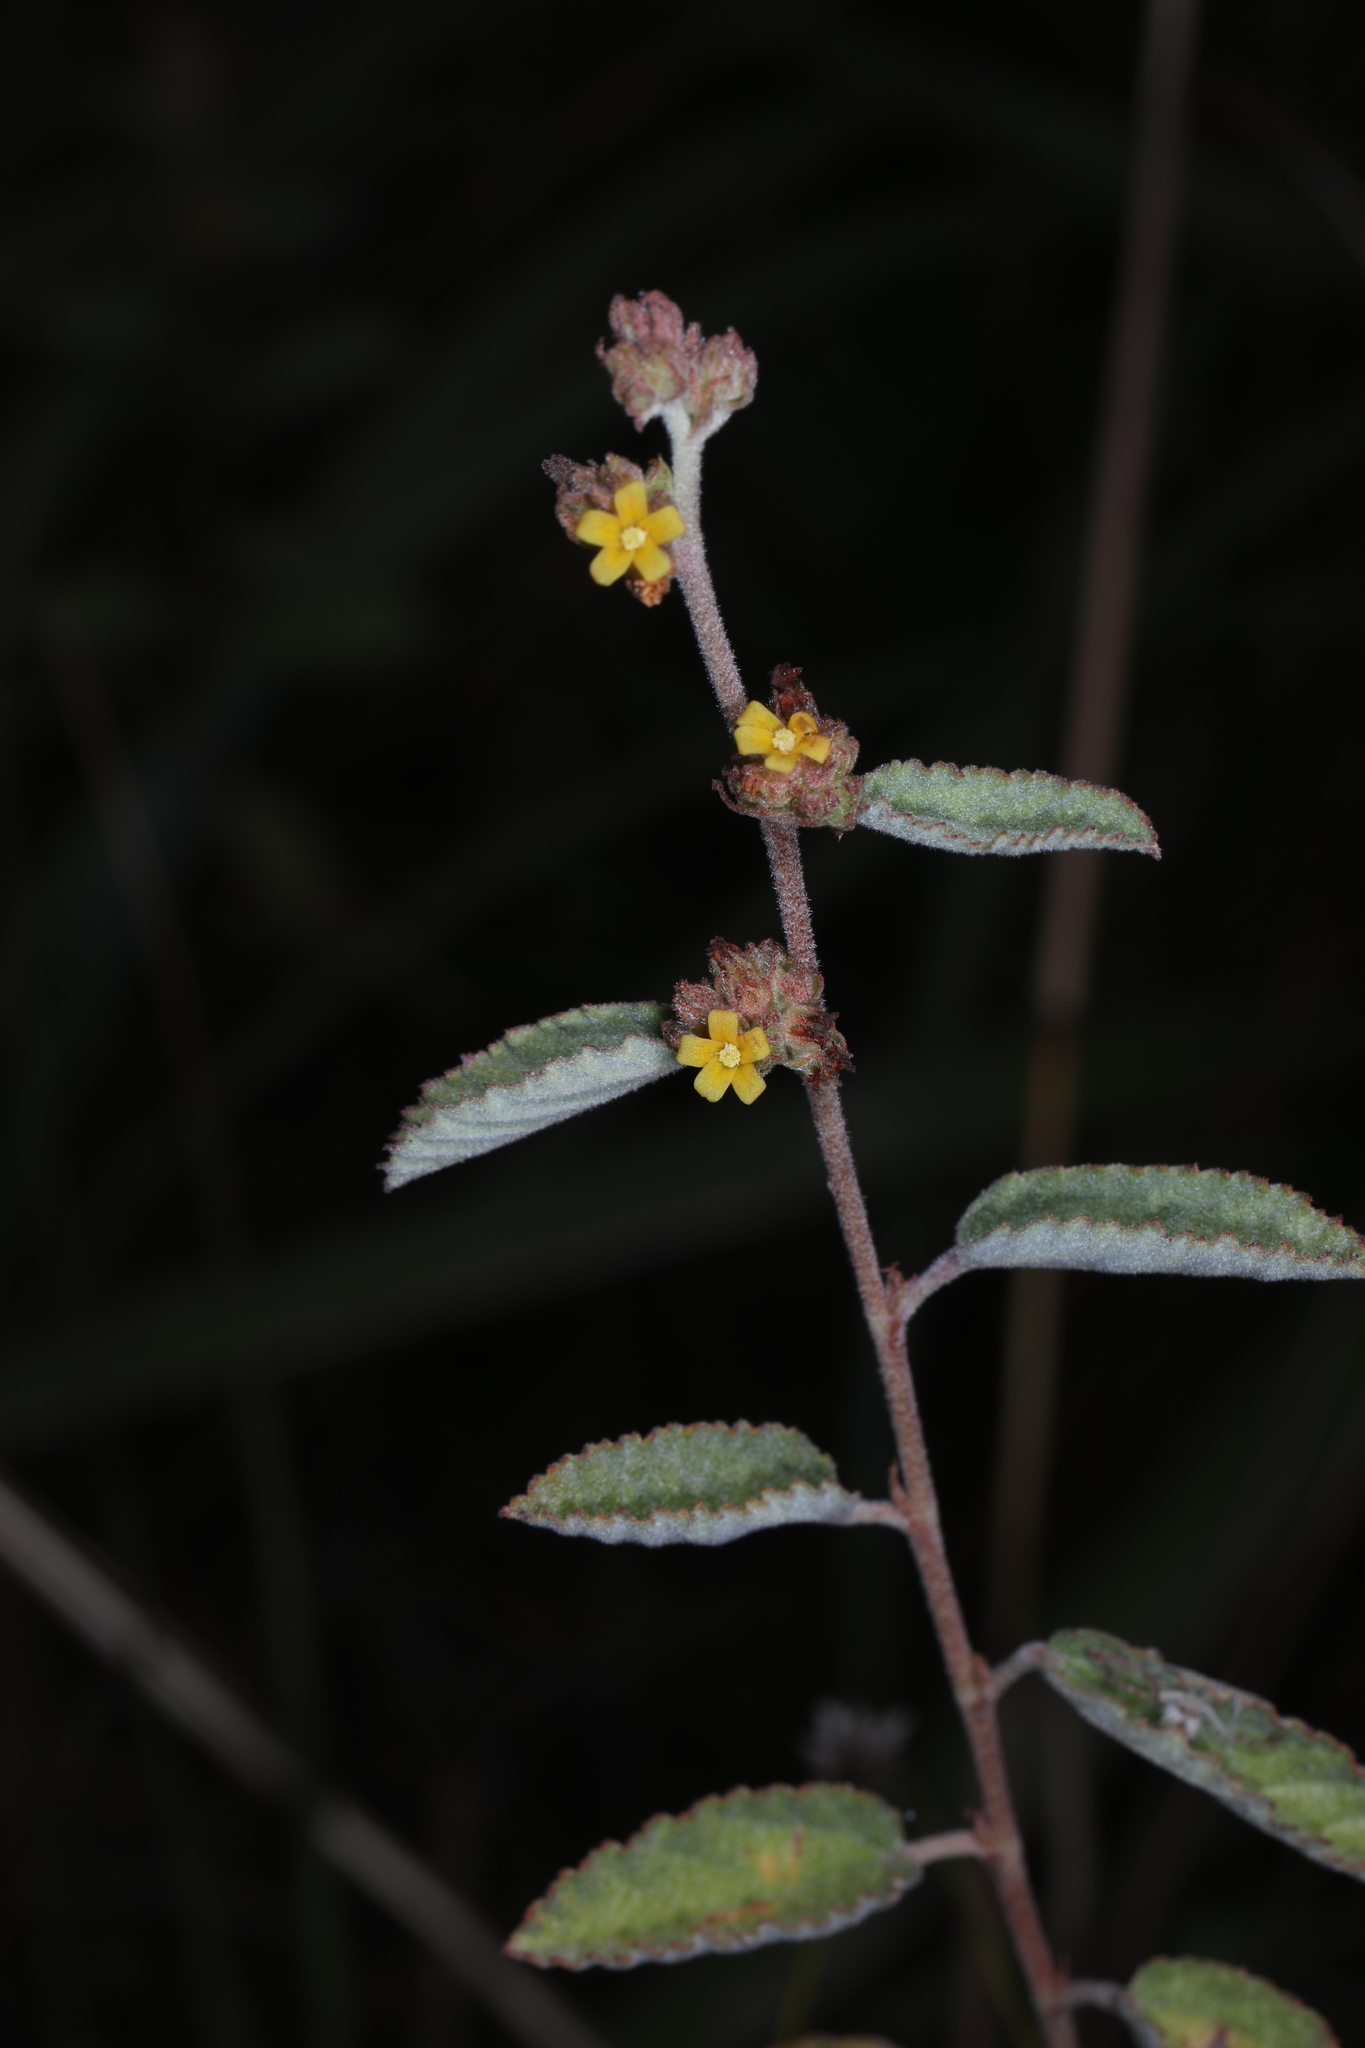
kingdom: Plantae
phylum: Tracheophyta
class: Magnoliopsida
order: Malvales
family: Malvaceae
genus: Waltheria
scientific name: Waltheria indica
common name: Leather-coat
